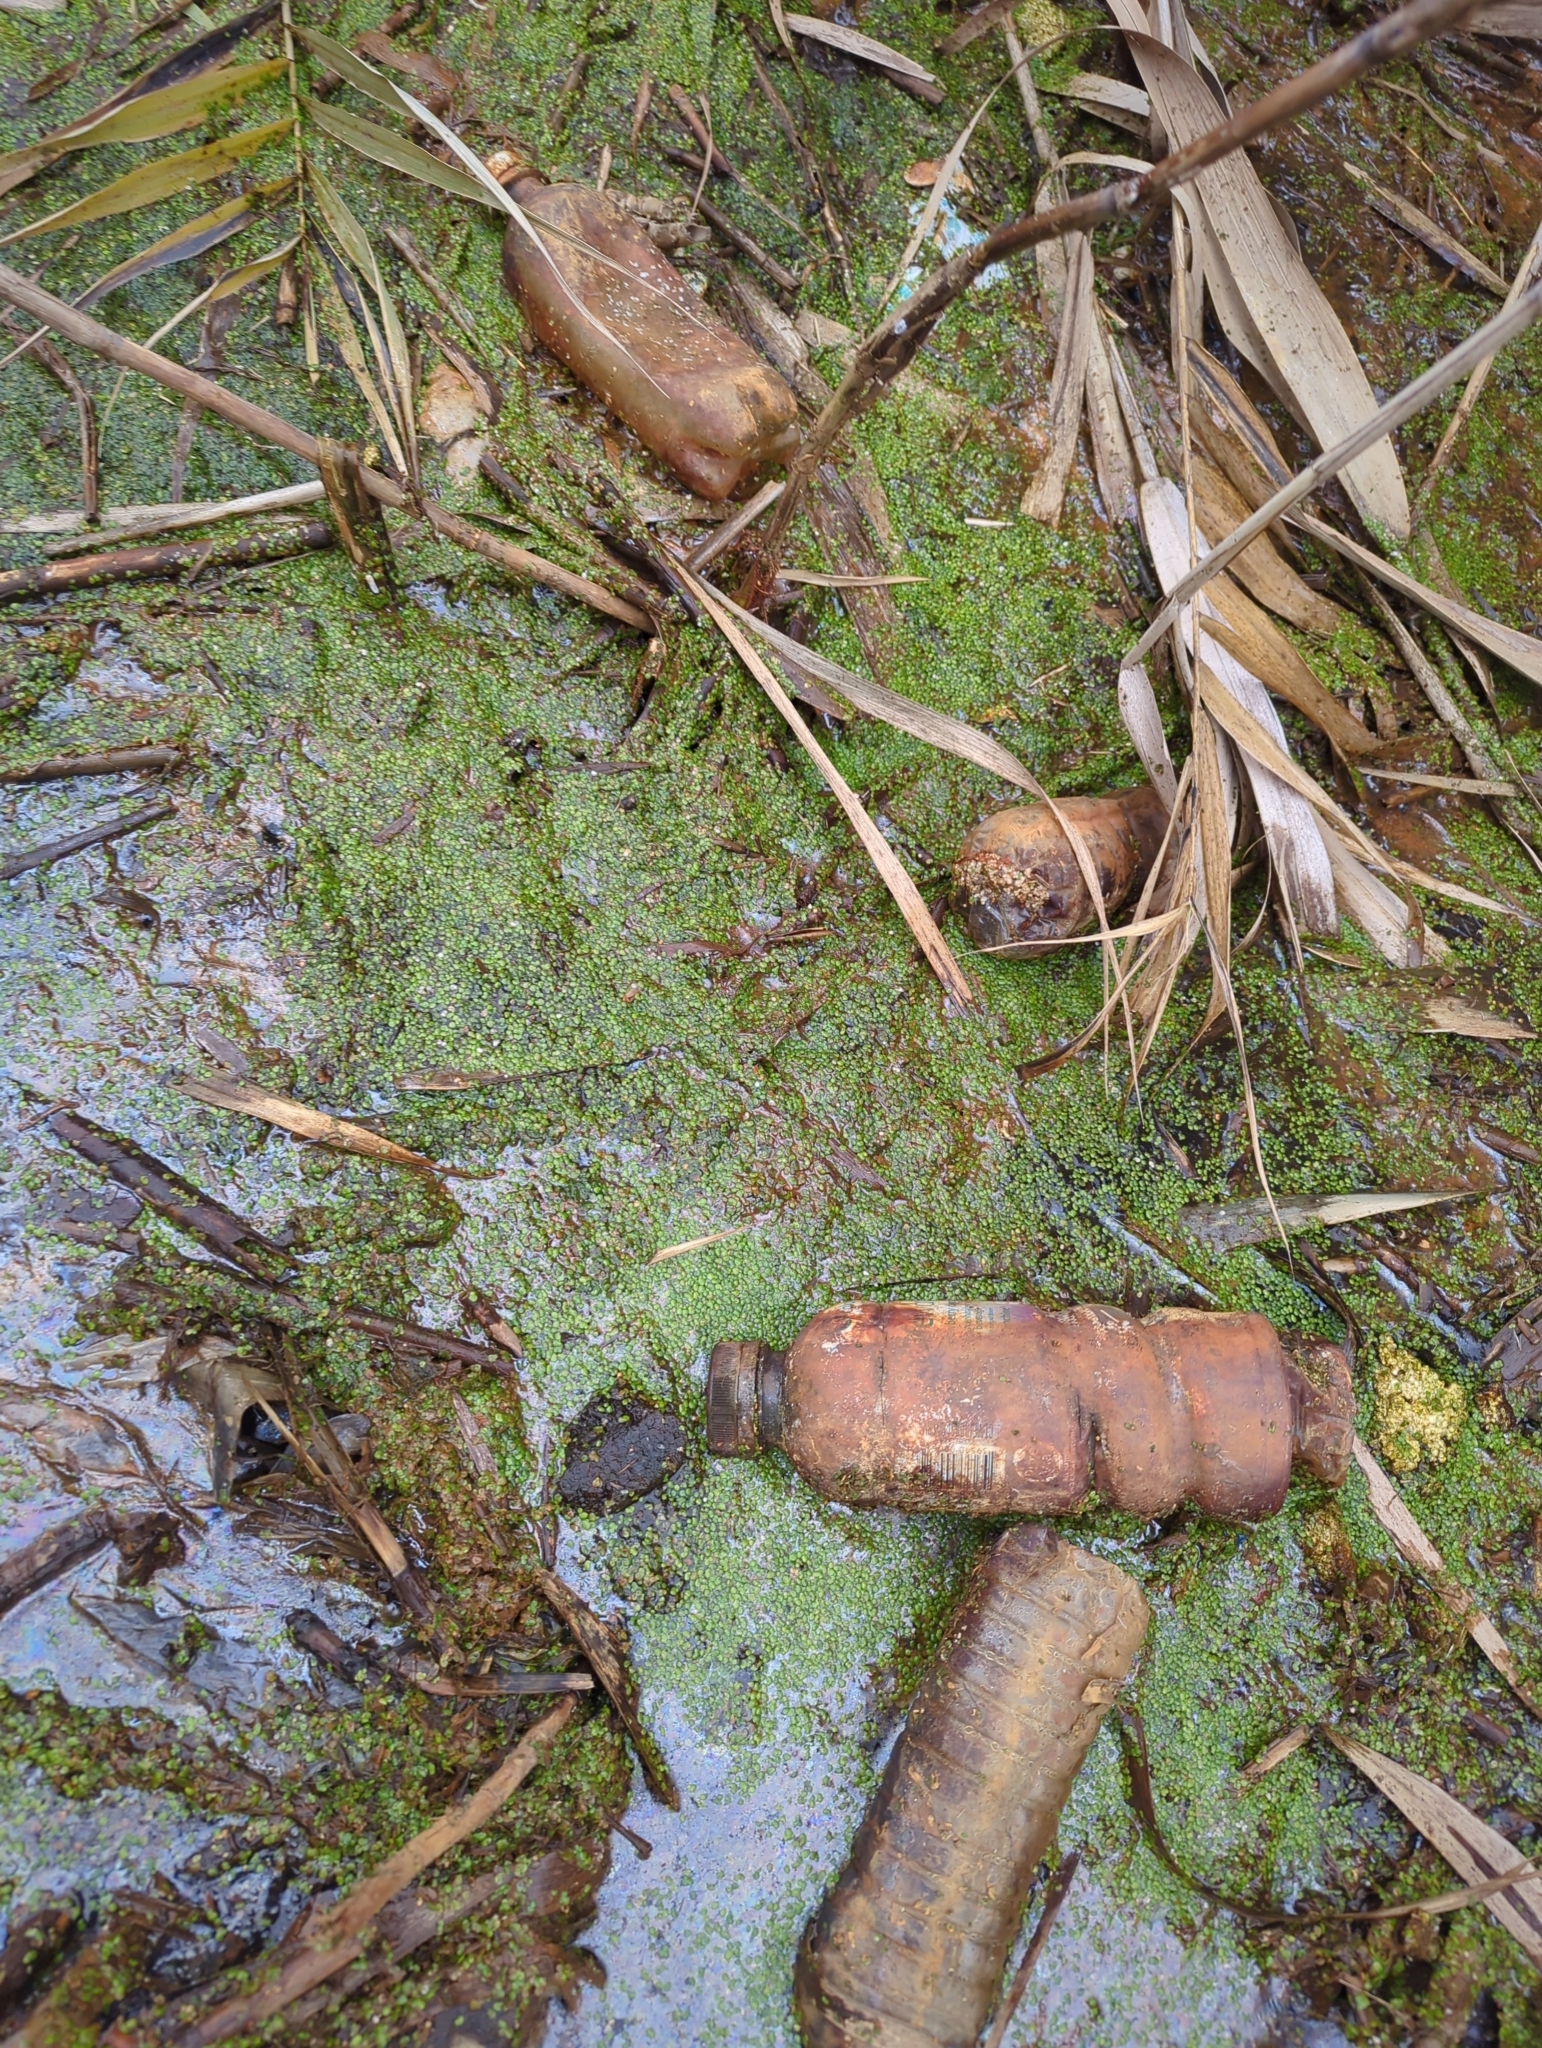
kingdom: Plantae
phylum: Tracheophyta
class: Liliopsida
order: Alismatales
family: Araceae
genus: Lemna
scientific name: Lemna minor
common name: Common duckweed
